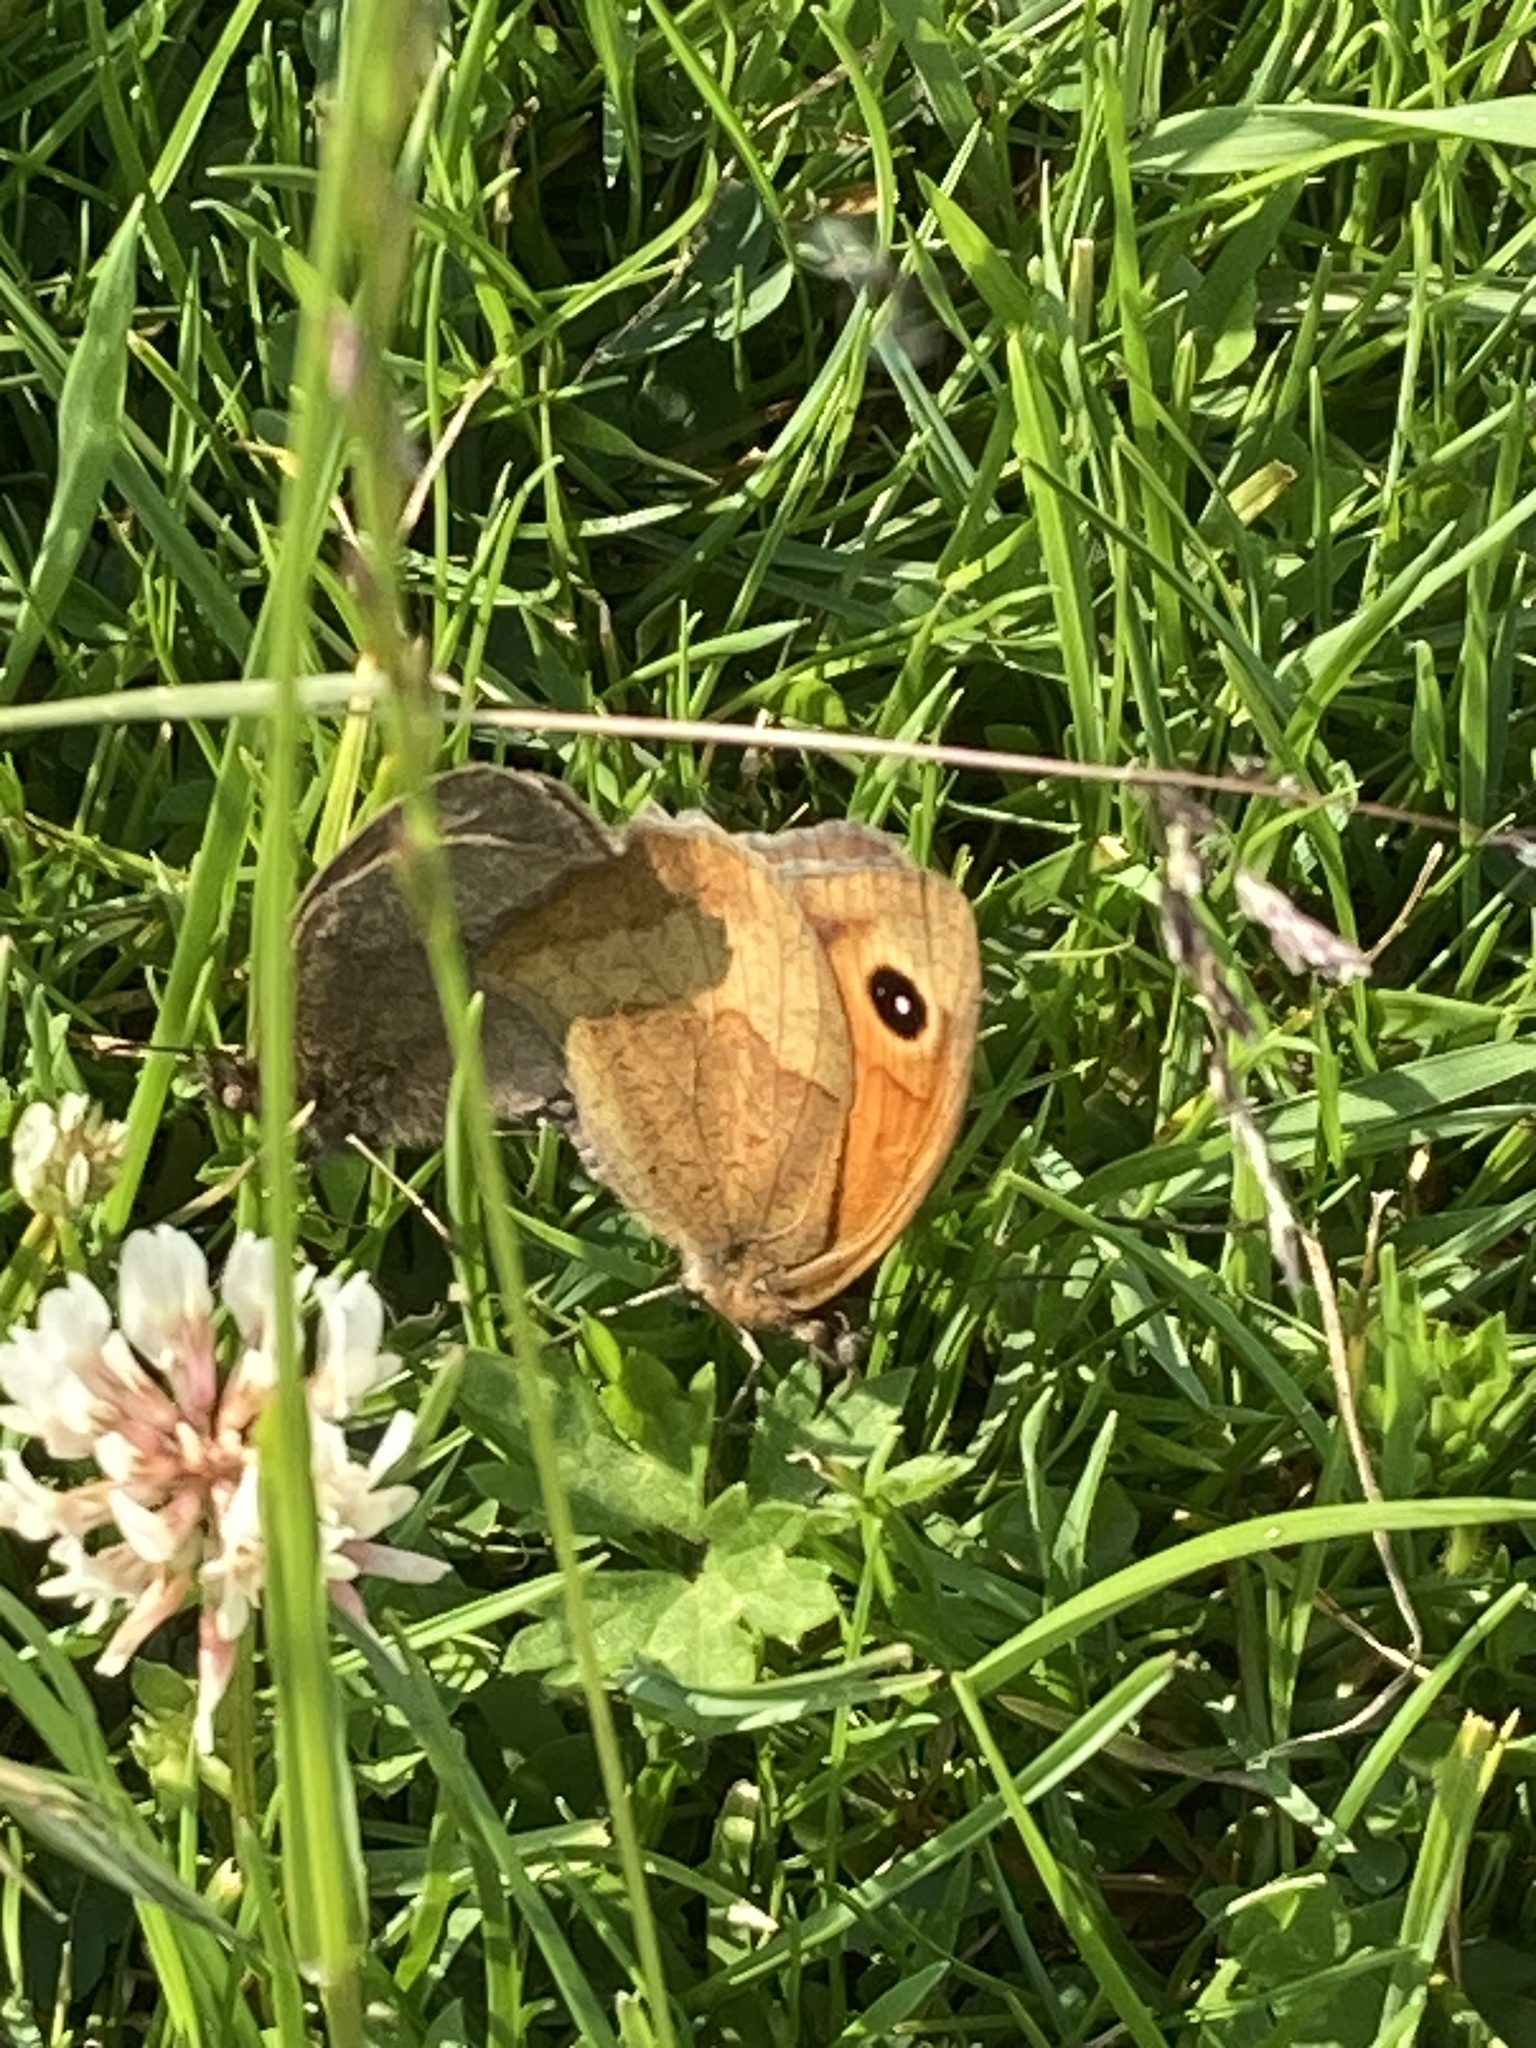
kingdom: Animalia
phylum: Arthropoda
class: Insecta
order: Lepidoptera
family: Nymphalidae
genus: Maniola
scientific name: Maniola jurtina
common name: Meadow brown
